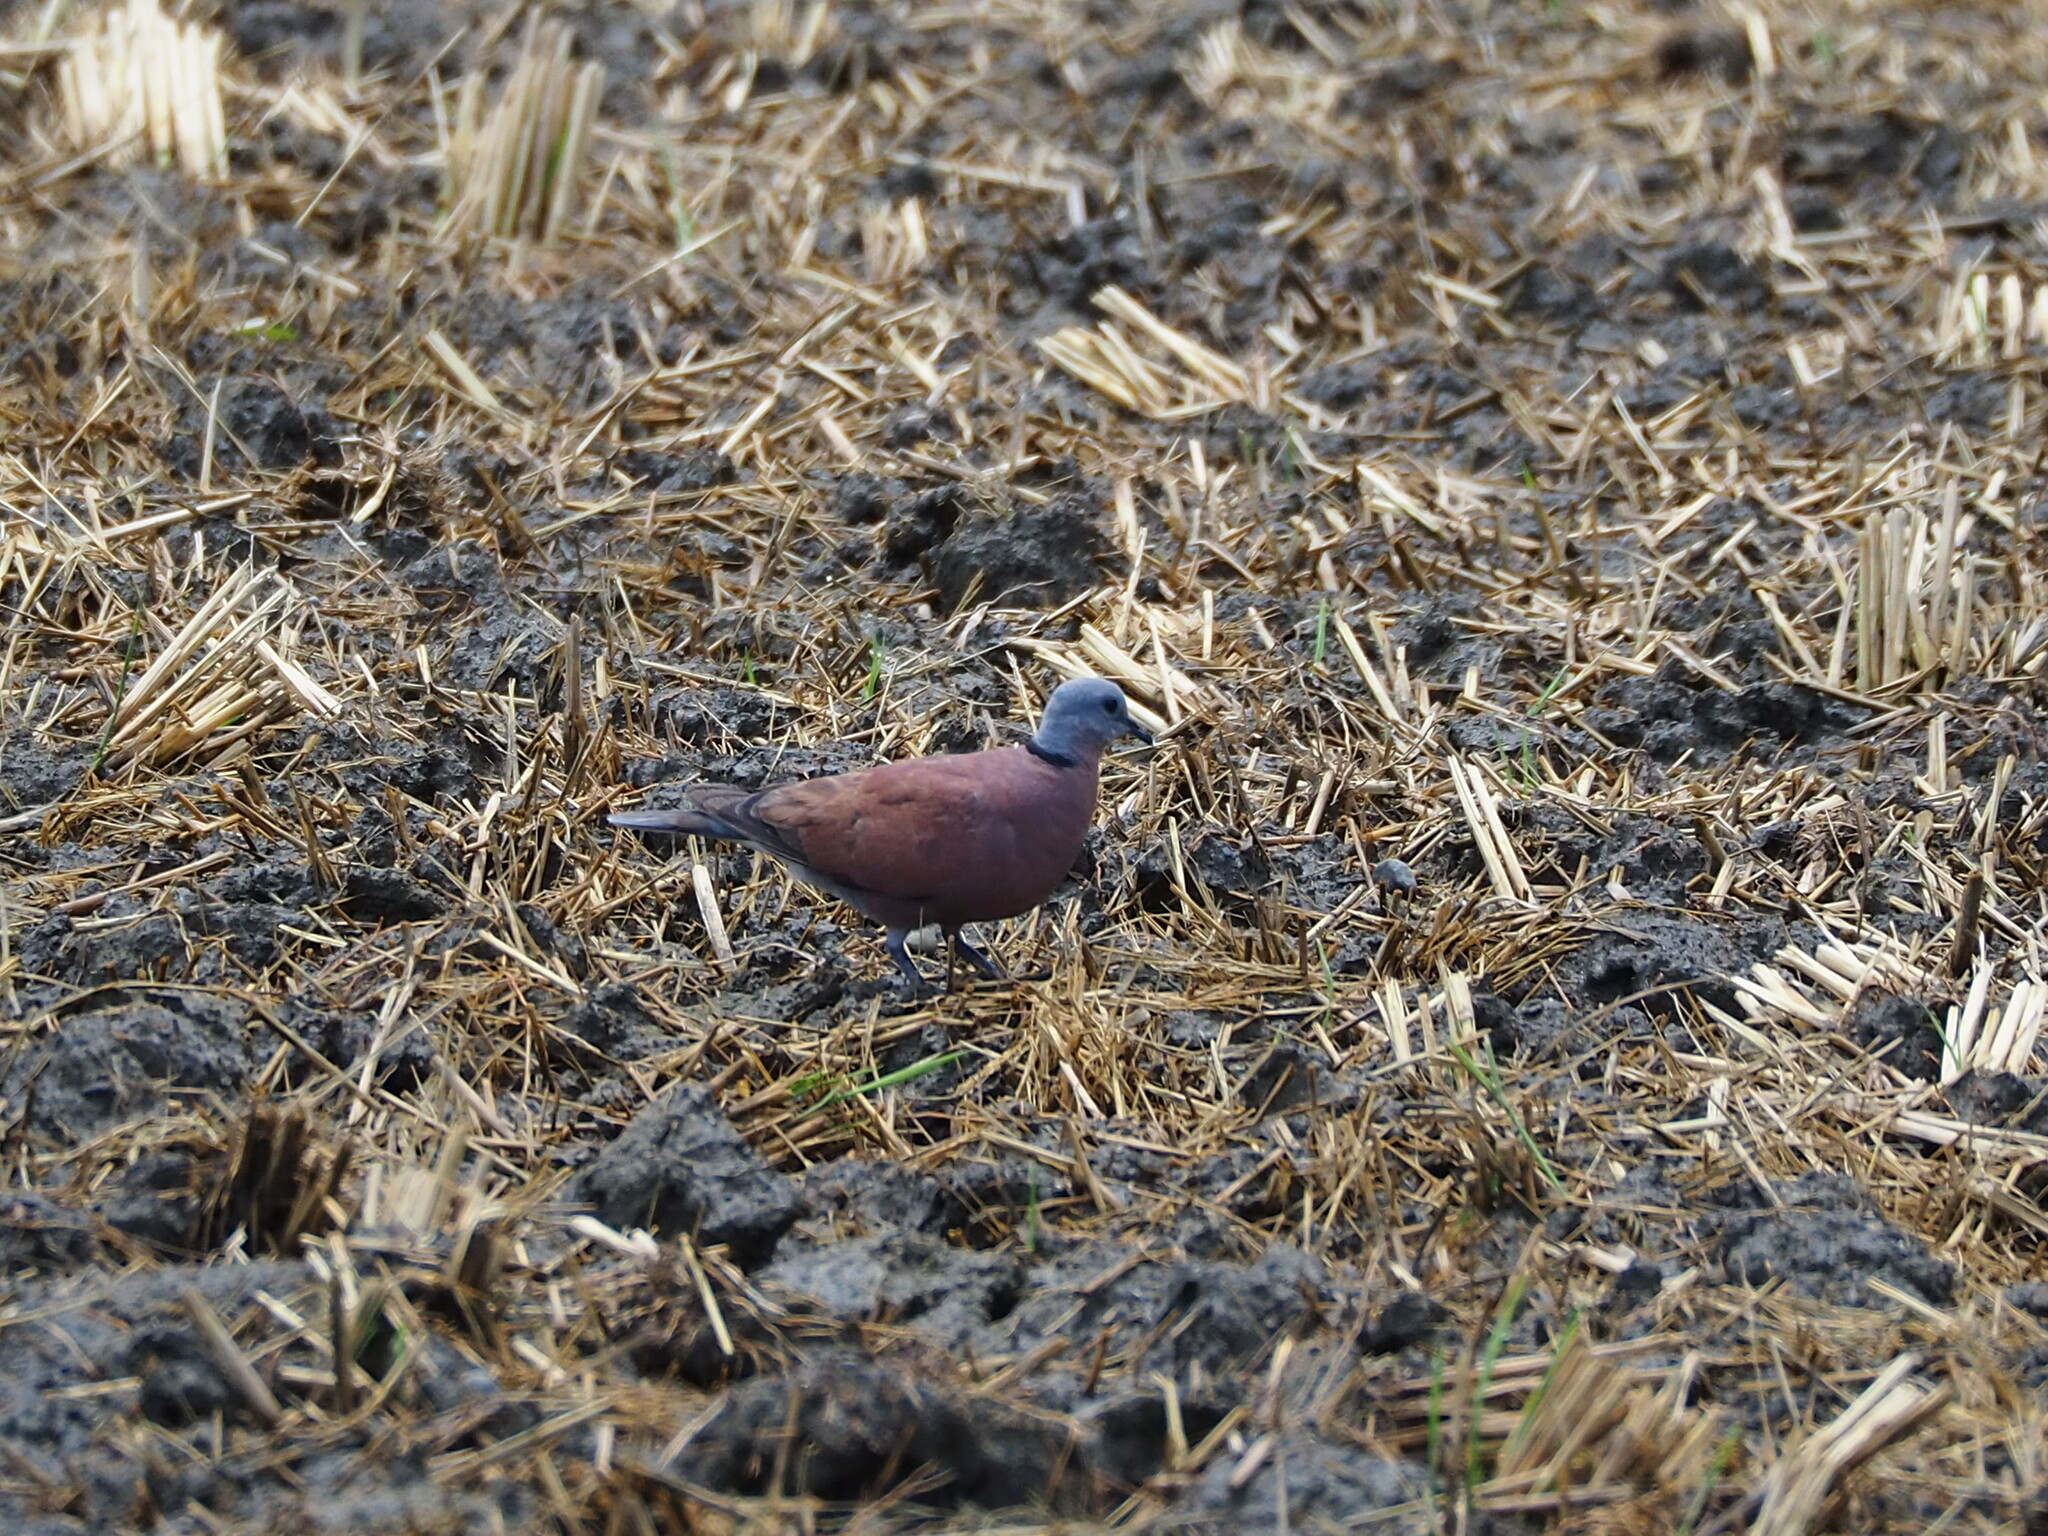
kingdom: Animalia
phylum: Chordata
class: Aves
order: Columbiformes
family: Columbidae
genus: Streptopelia
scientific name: Streptopelia tranquebarica
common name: Red turtle dove
